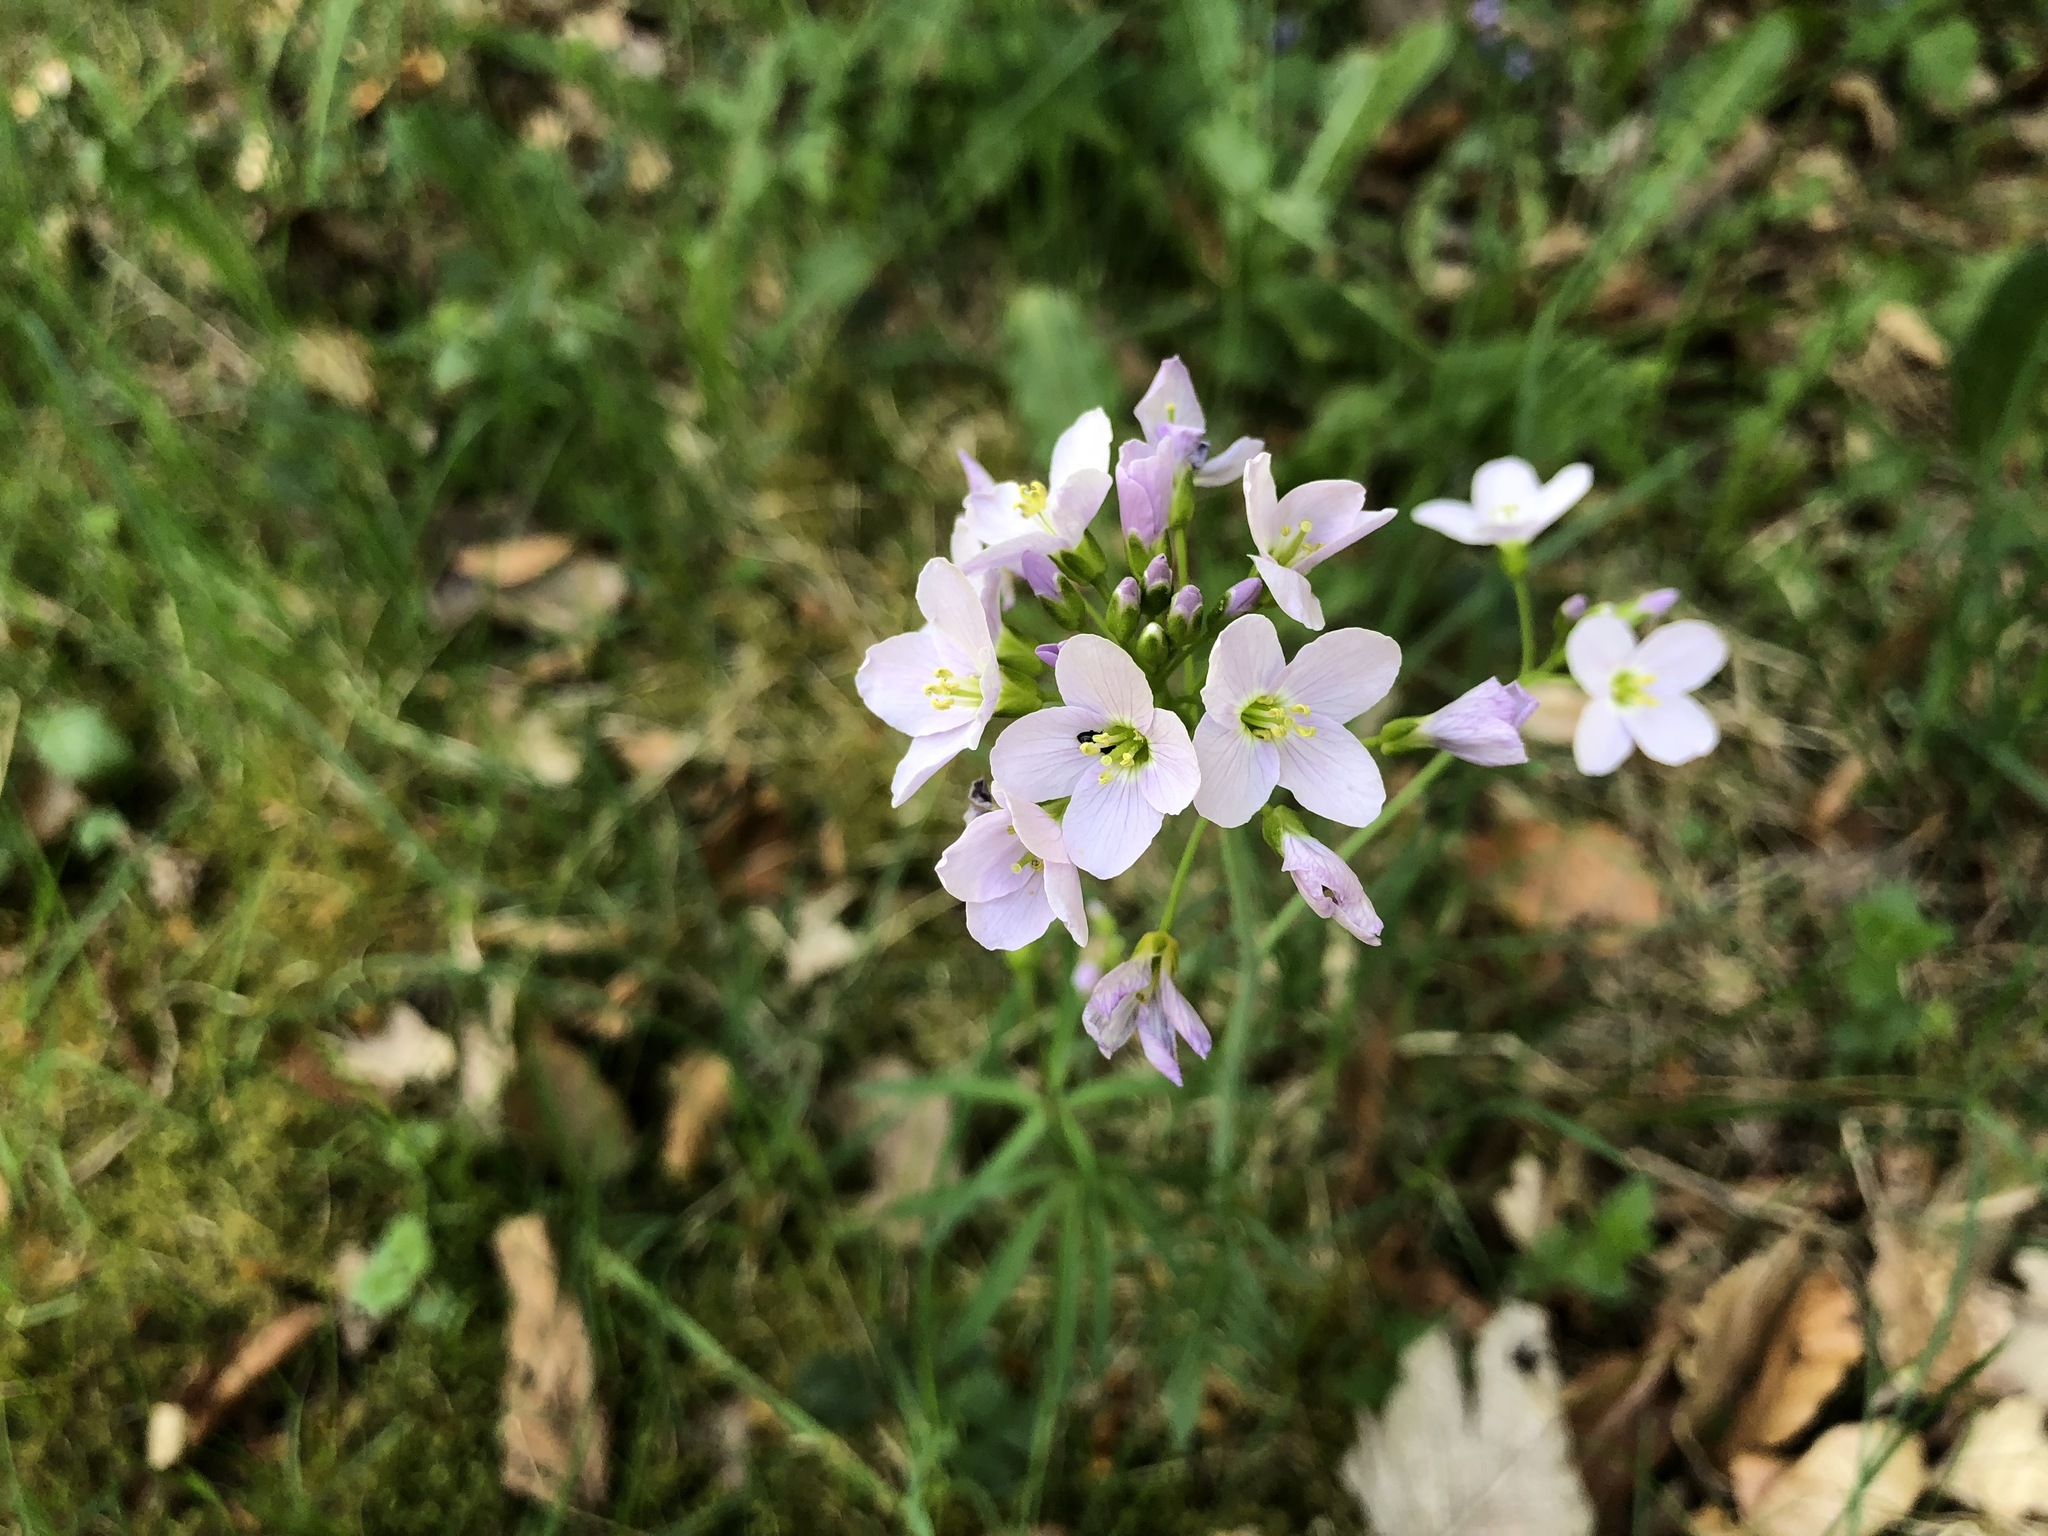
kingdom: Plantae
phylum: Tracheophyta
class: Magnoliopsida
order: Brassicales
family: Brassicaceae
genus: Cardamine
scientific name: Cardamine pratensis
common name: Cuckoo flower
